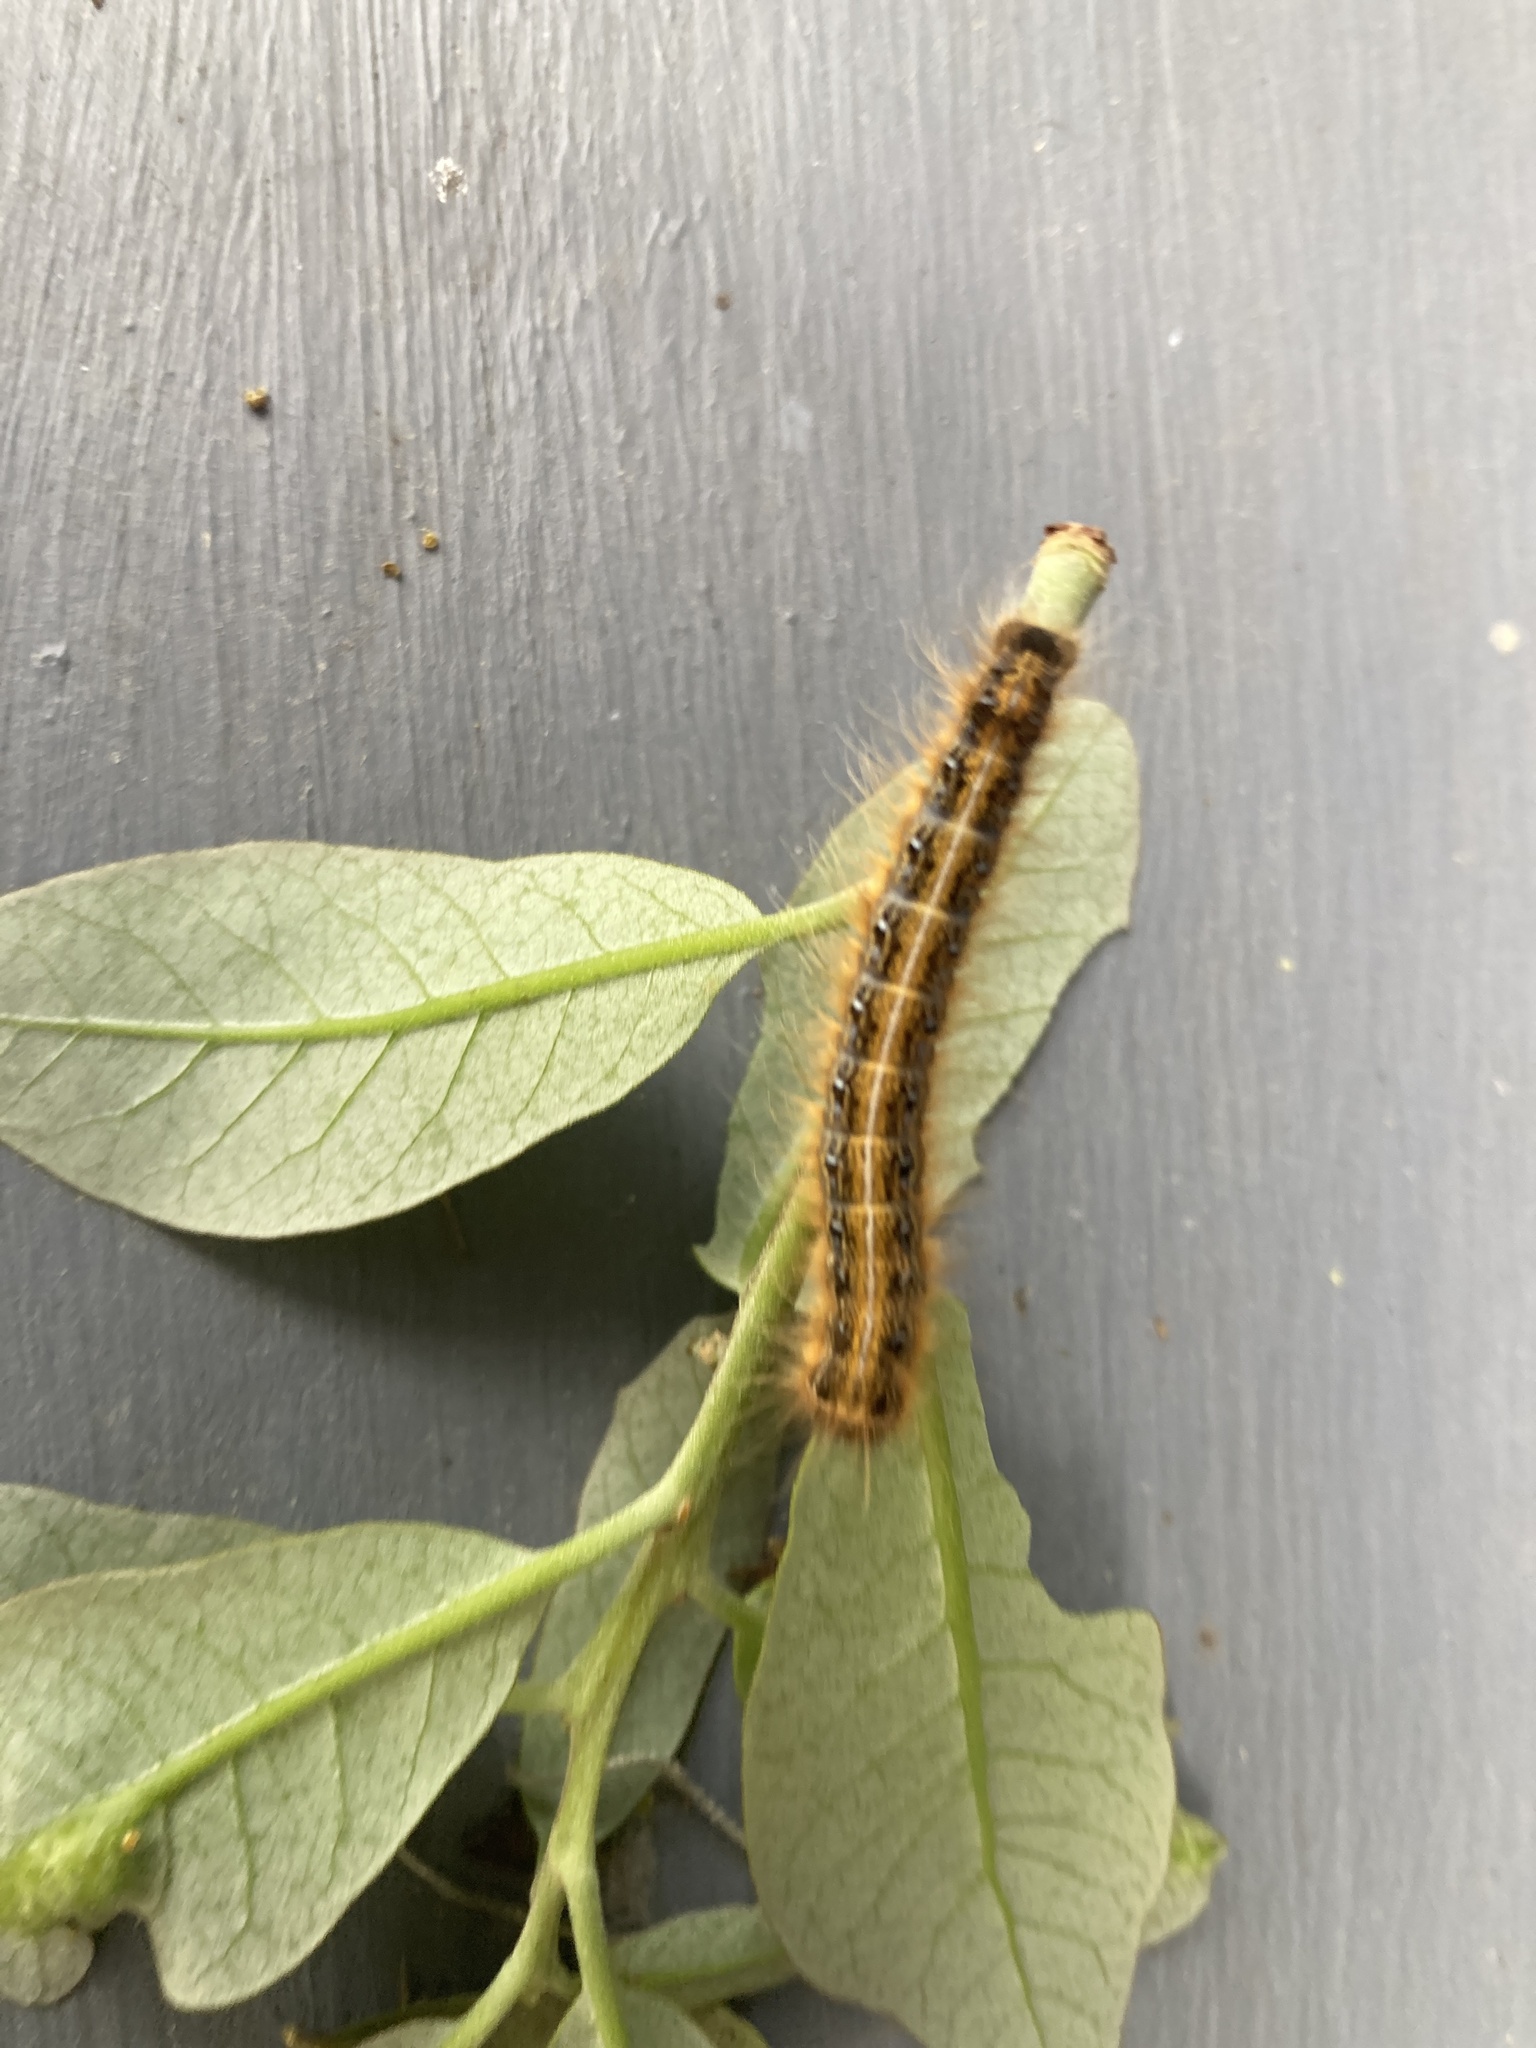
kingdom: Animalia
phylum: Arthropoda
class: Insecta
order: Lepidoptera
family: Lasiocampidae
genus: Malacosoma
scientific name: Malacosoma americana
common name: Eastern tent caterpillar moth
